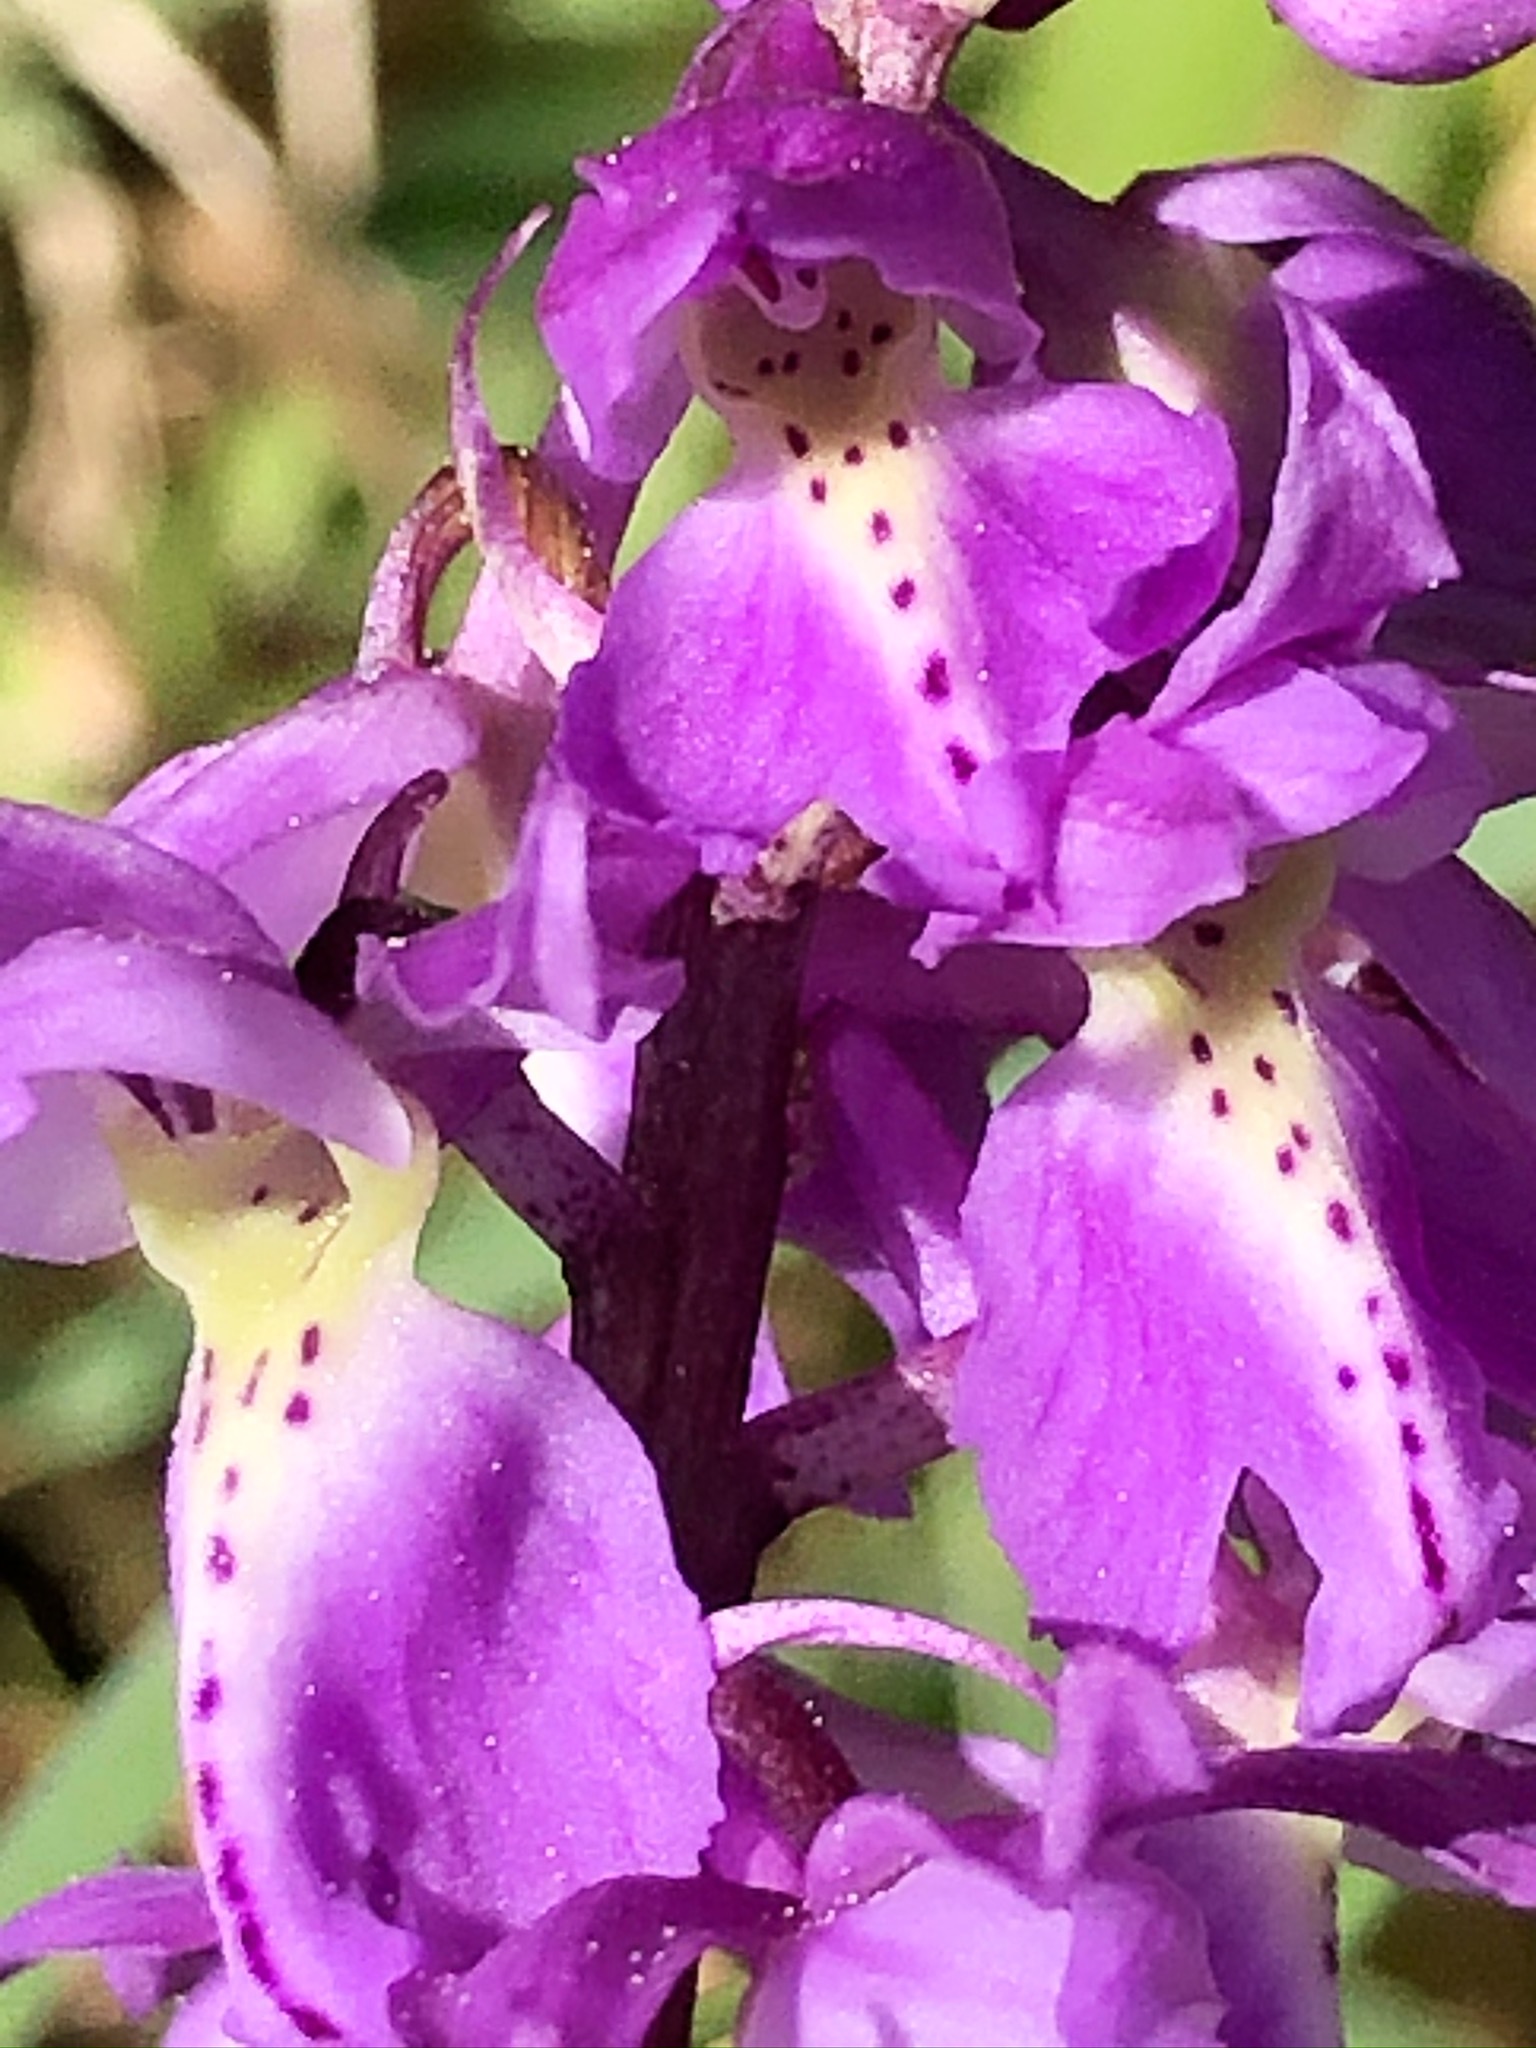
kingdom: Plantae
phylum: Tracheophyta
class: Liliopsida
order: Asparagales
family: Orchidaceae
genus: Orchis
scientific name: Orchis mascula
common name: Early-purple orchid
